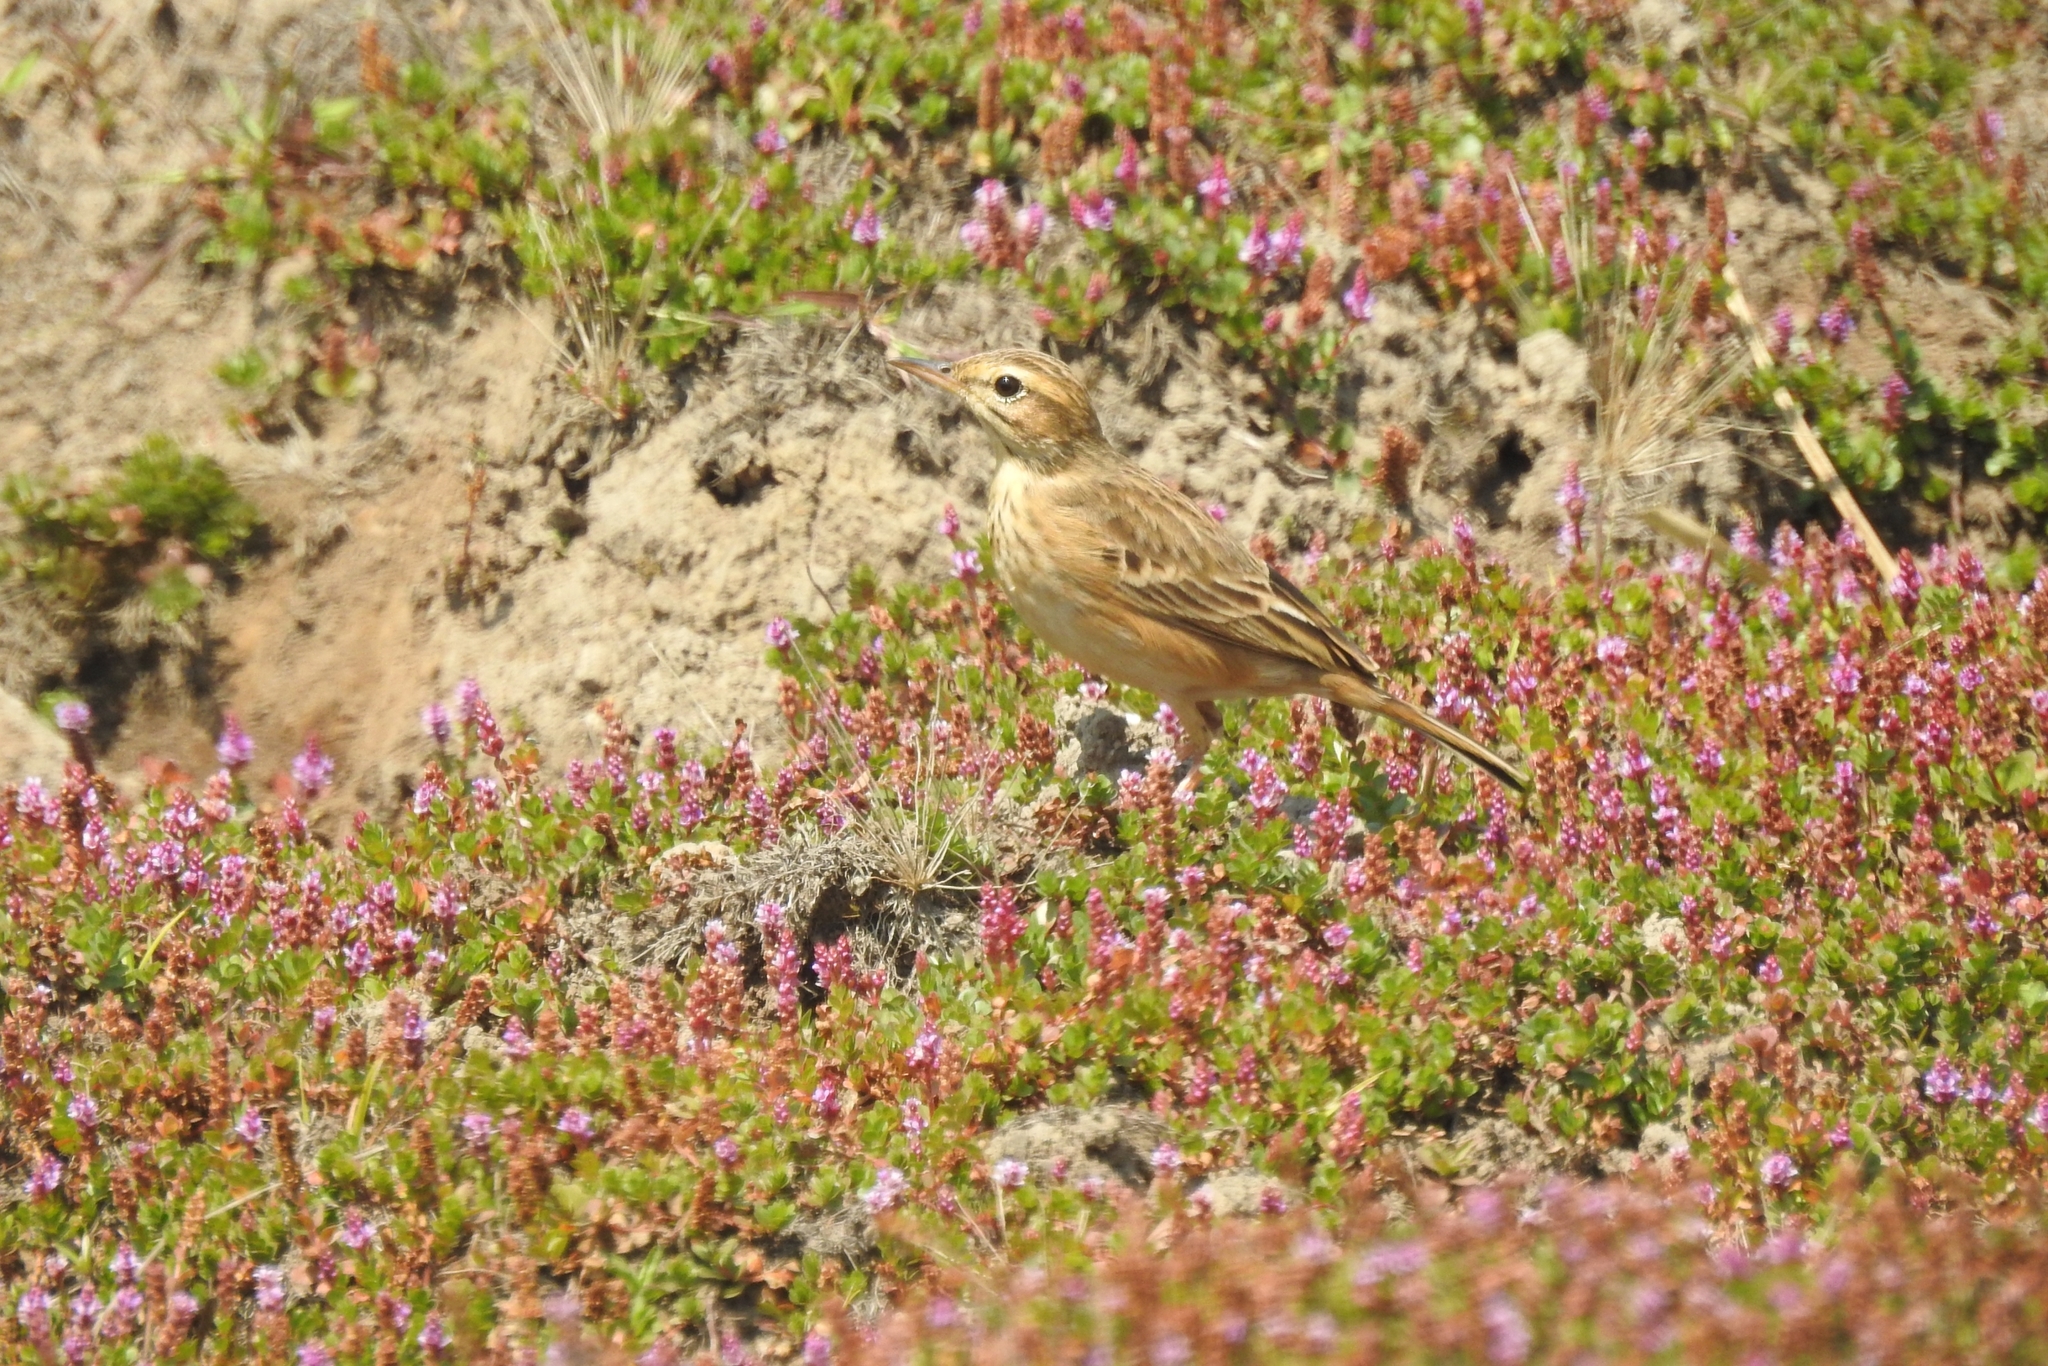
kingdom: Animalia
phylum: Chordata
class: Aves
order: Passeriformes
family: Motacillidae
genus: Anthus
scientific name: Anthus rufulus
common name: Paddyfield pipit
